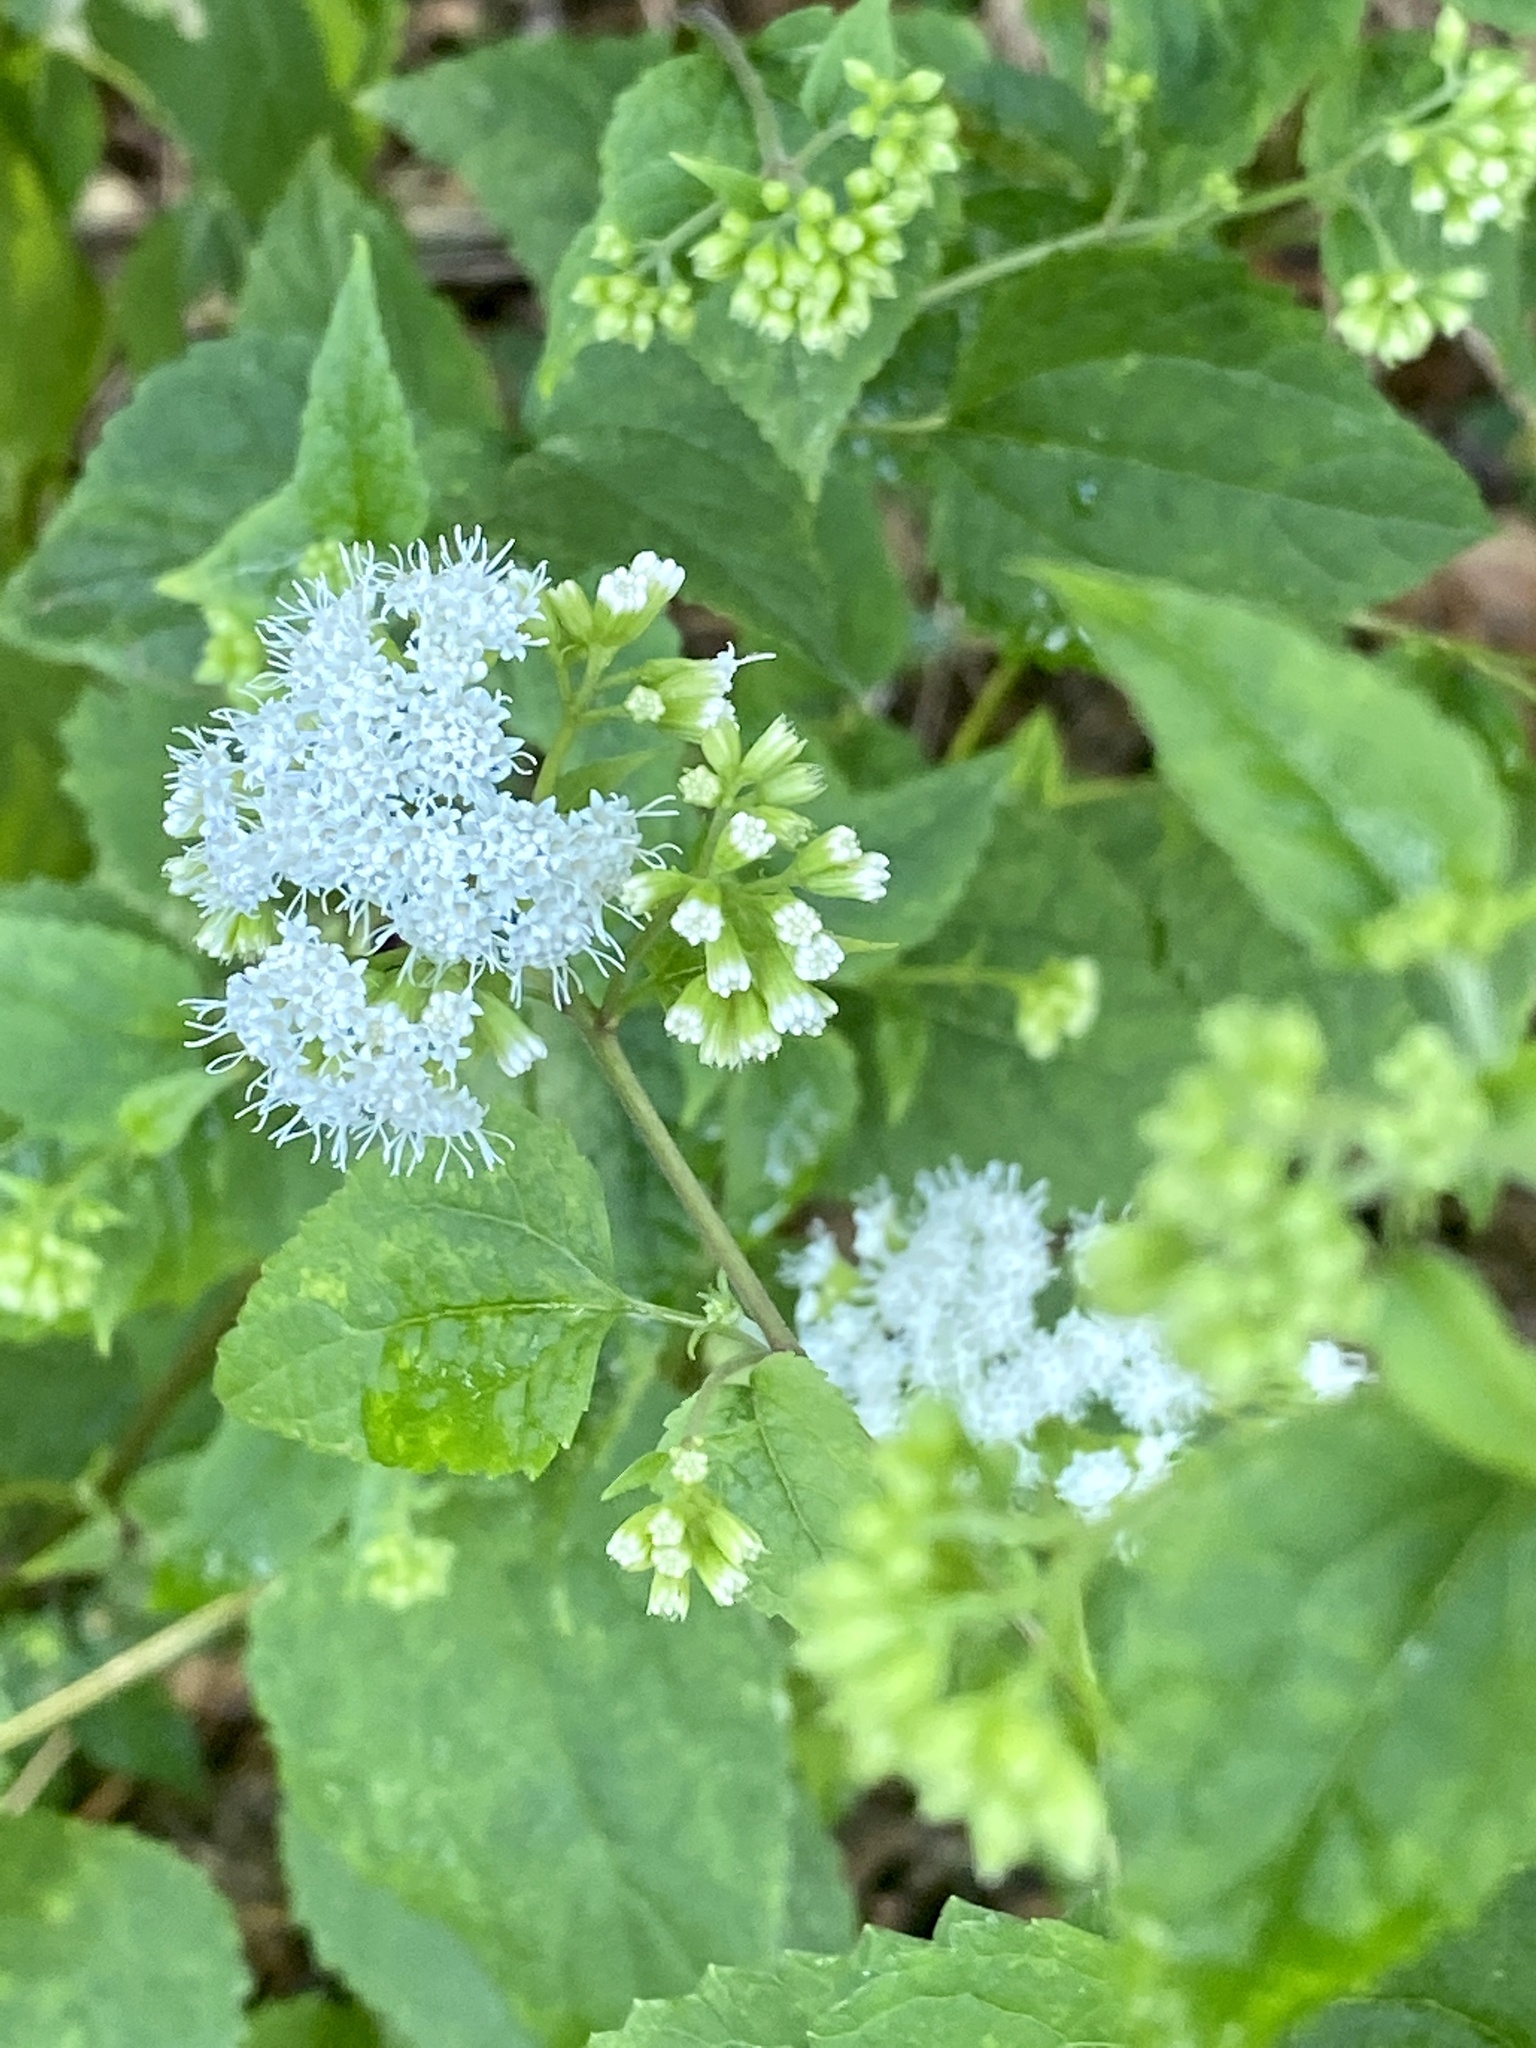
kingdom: Plantae
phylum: Tracheophyta
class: Magnoliopsida
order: Asterales
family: Asteraceae
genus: Ageratina
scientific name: Ageratina altissima
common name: White snakeroot
